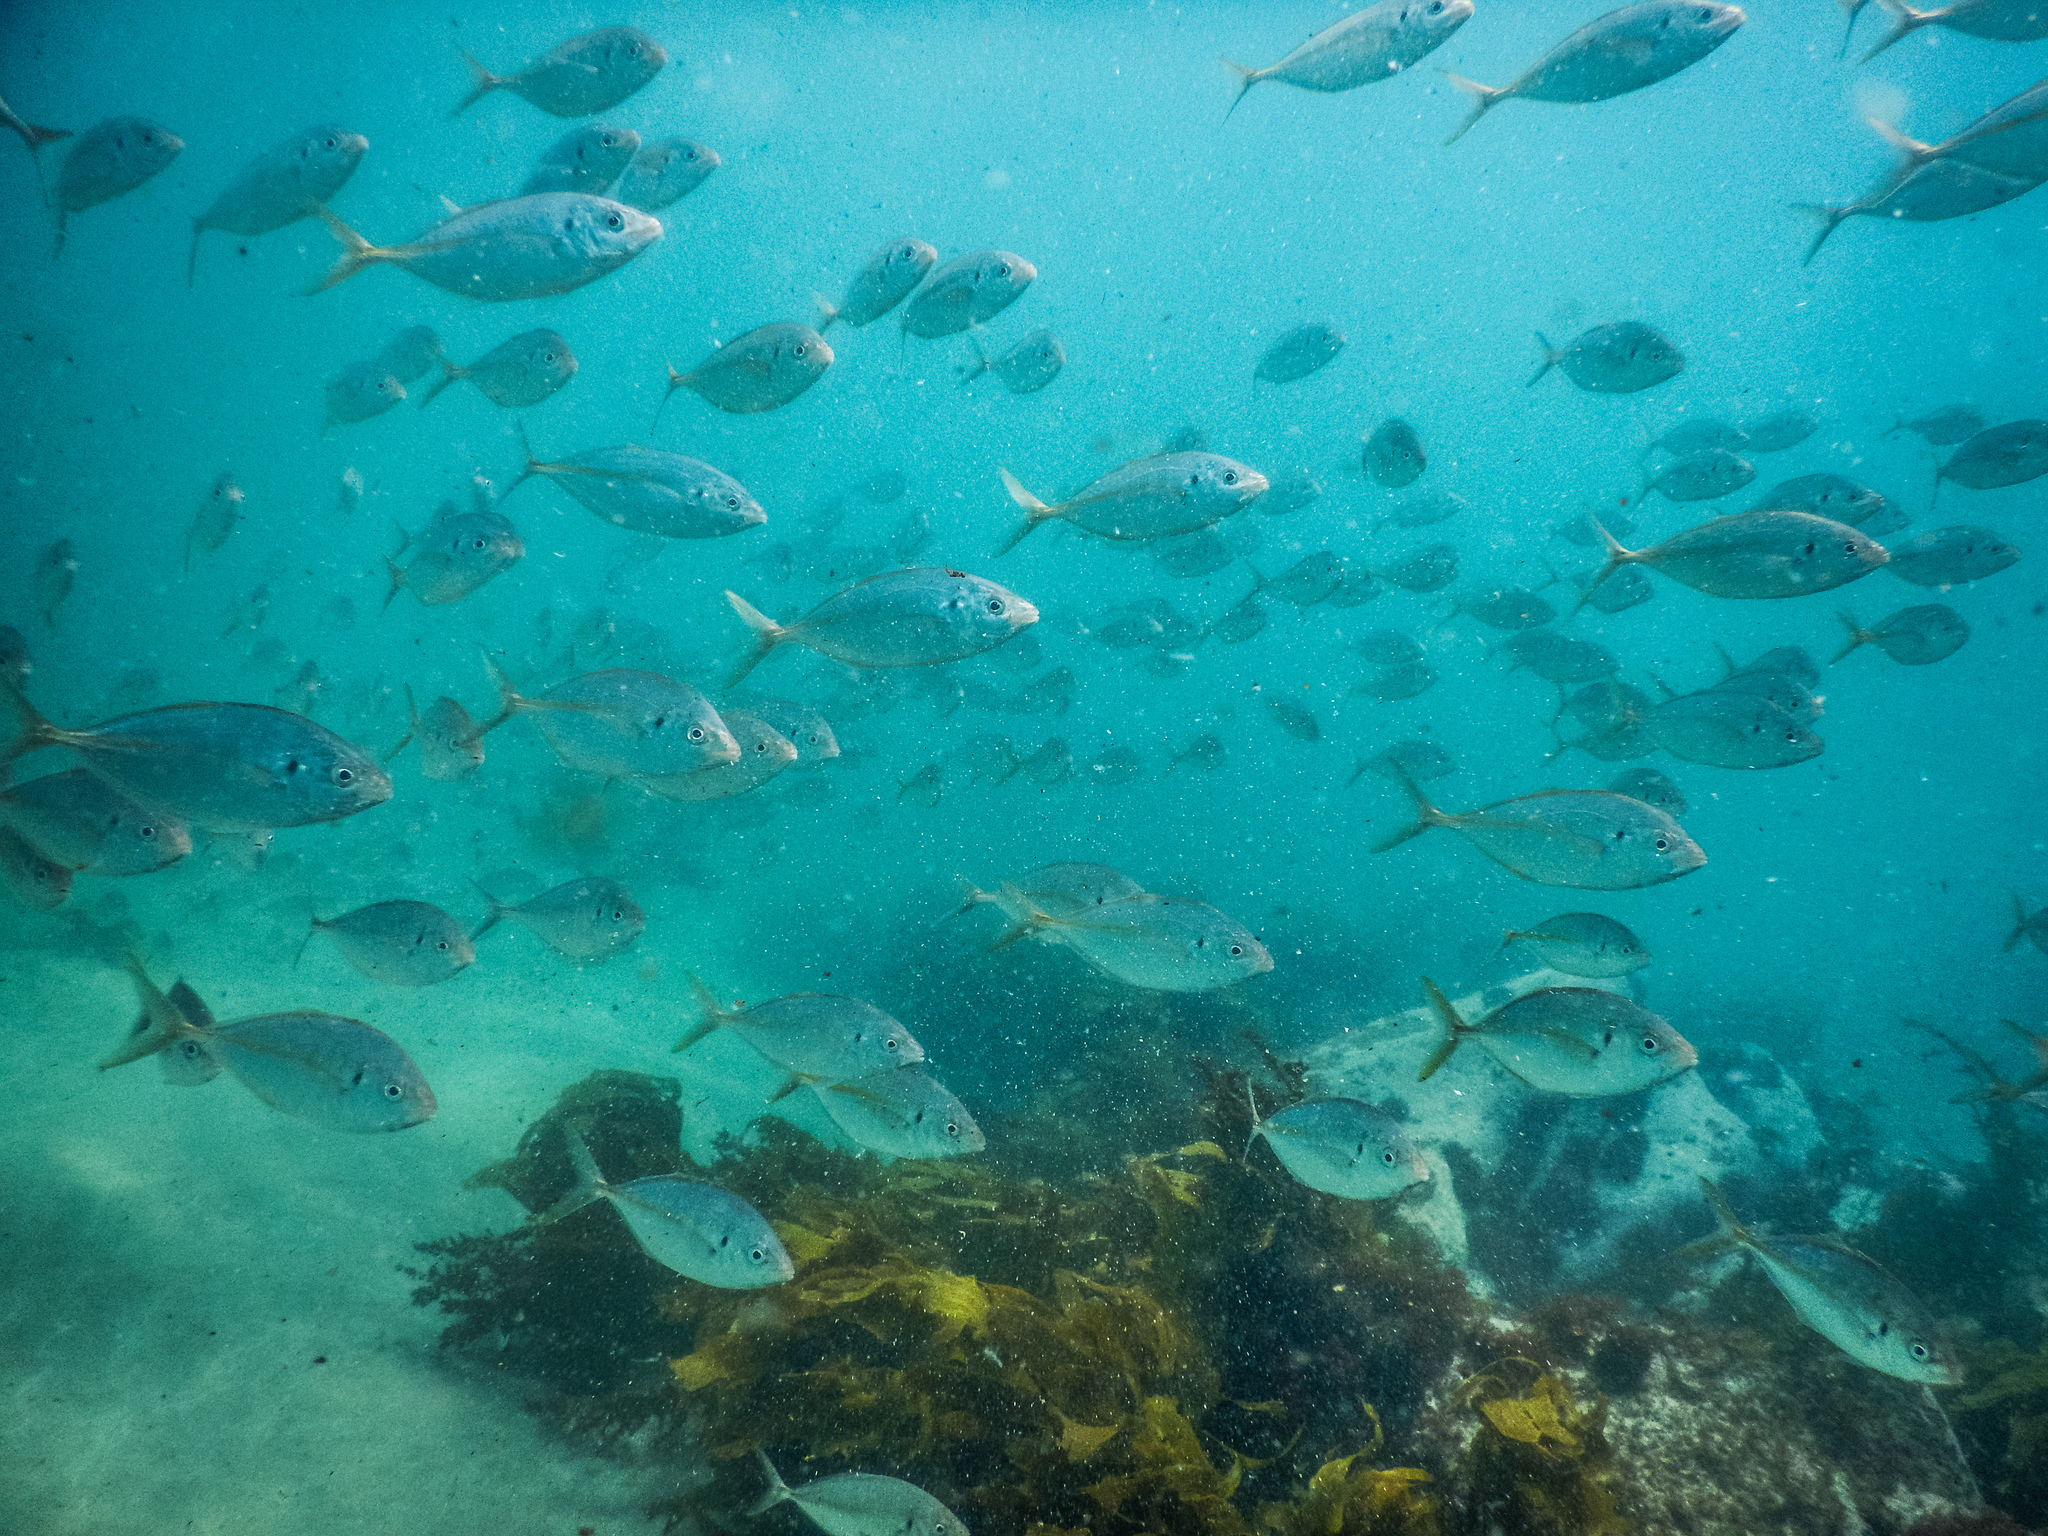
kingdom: Animalia
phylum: Chordata
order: Perciformes
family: Carangidae
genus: Pseudocaranx
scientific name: Pseudocaranx dentex
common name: White trevally
